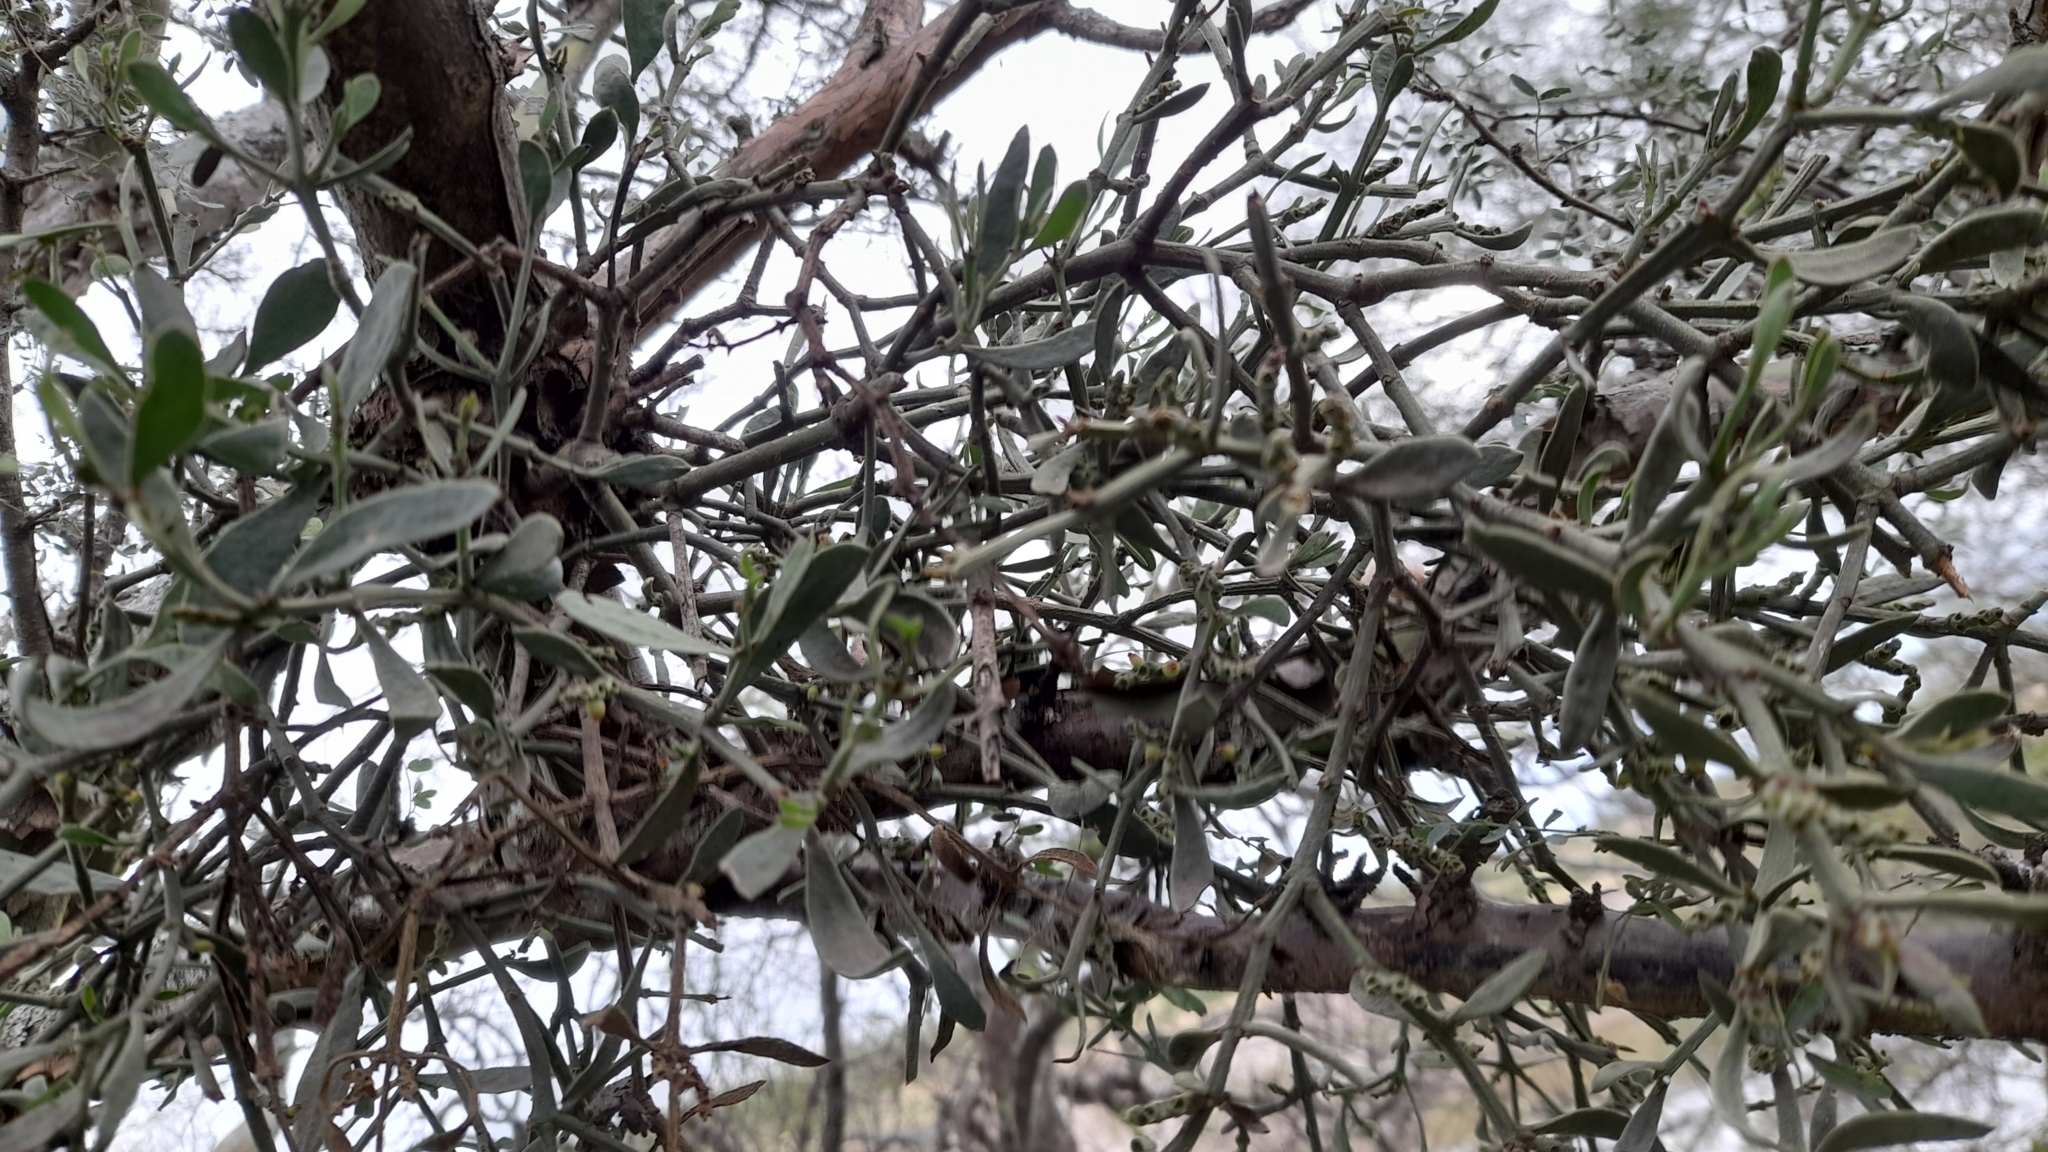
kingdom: Plantae
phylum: Tracheophyta
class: Magnoliopsida
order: Santalales
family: Loranthaceae
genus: Ligaria
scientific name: Ligaria cuneifolia
